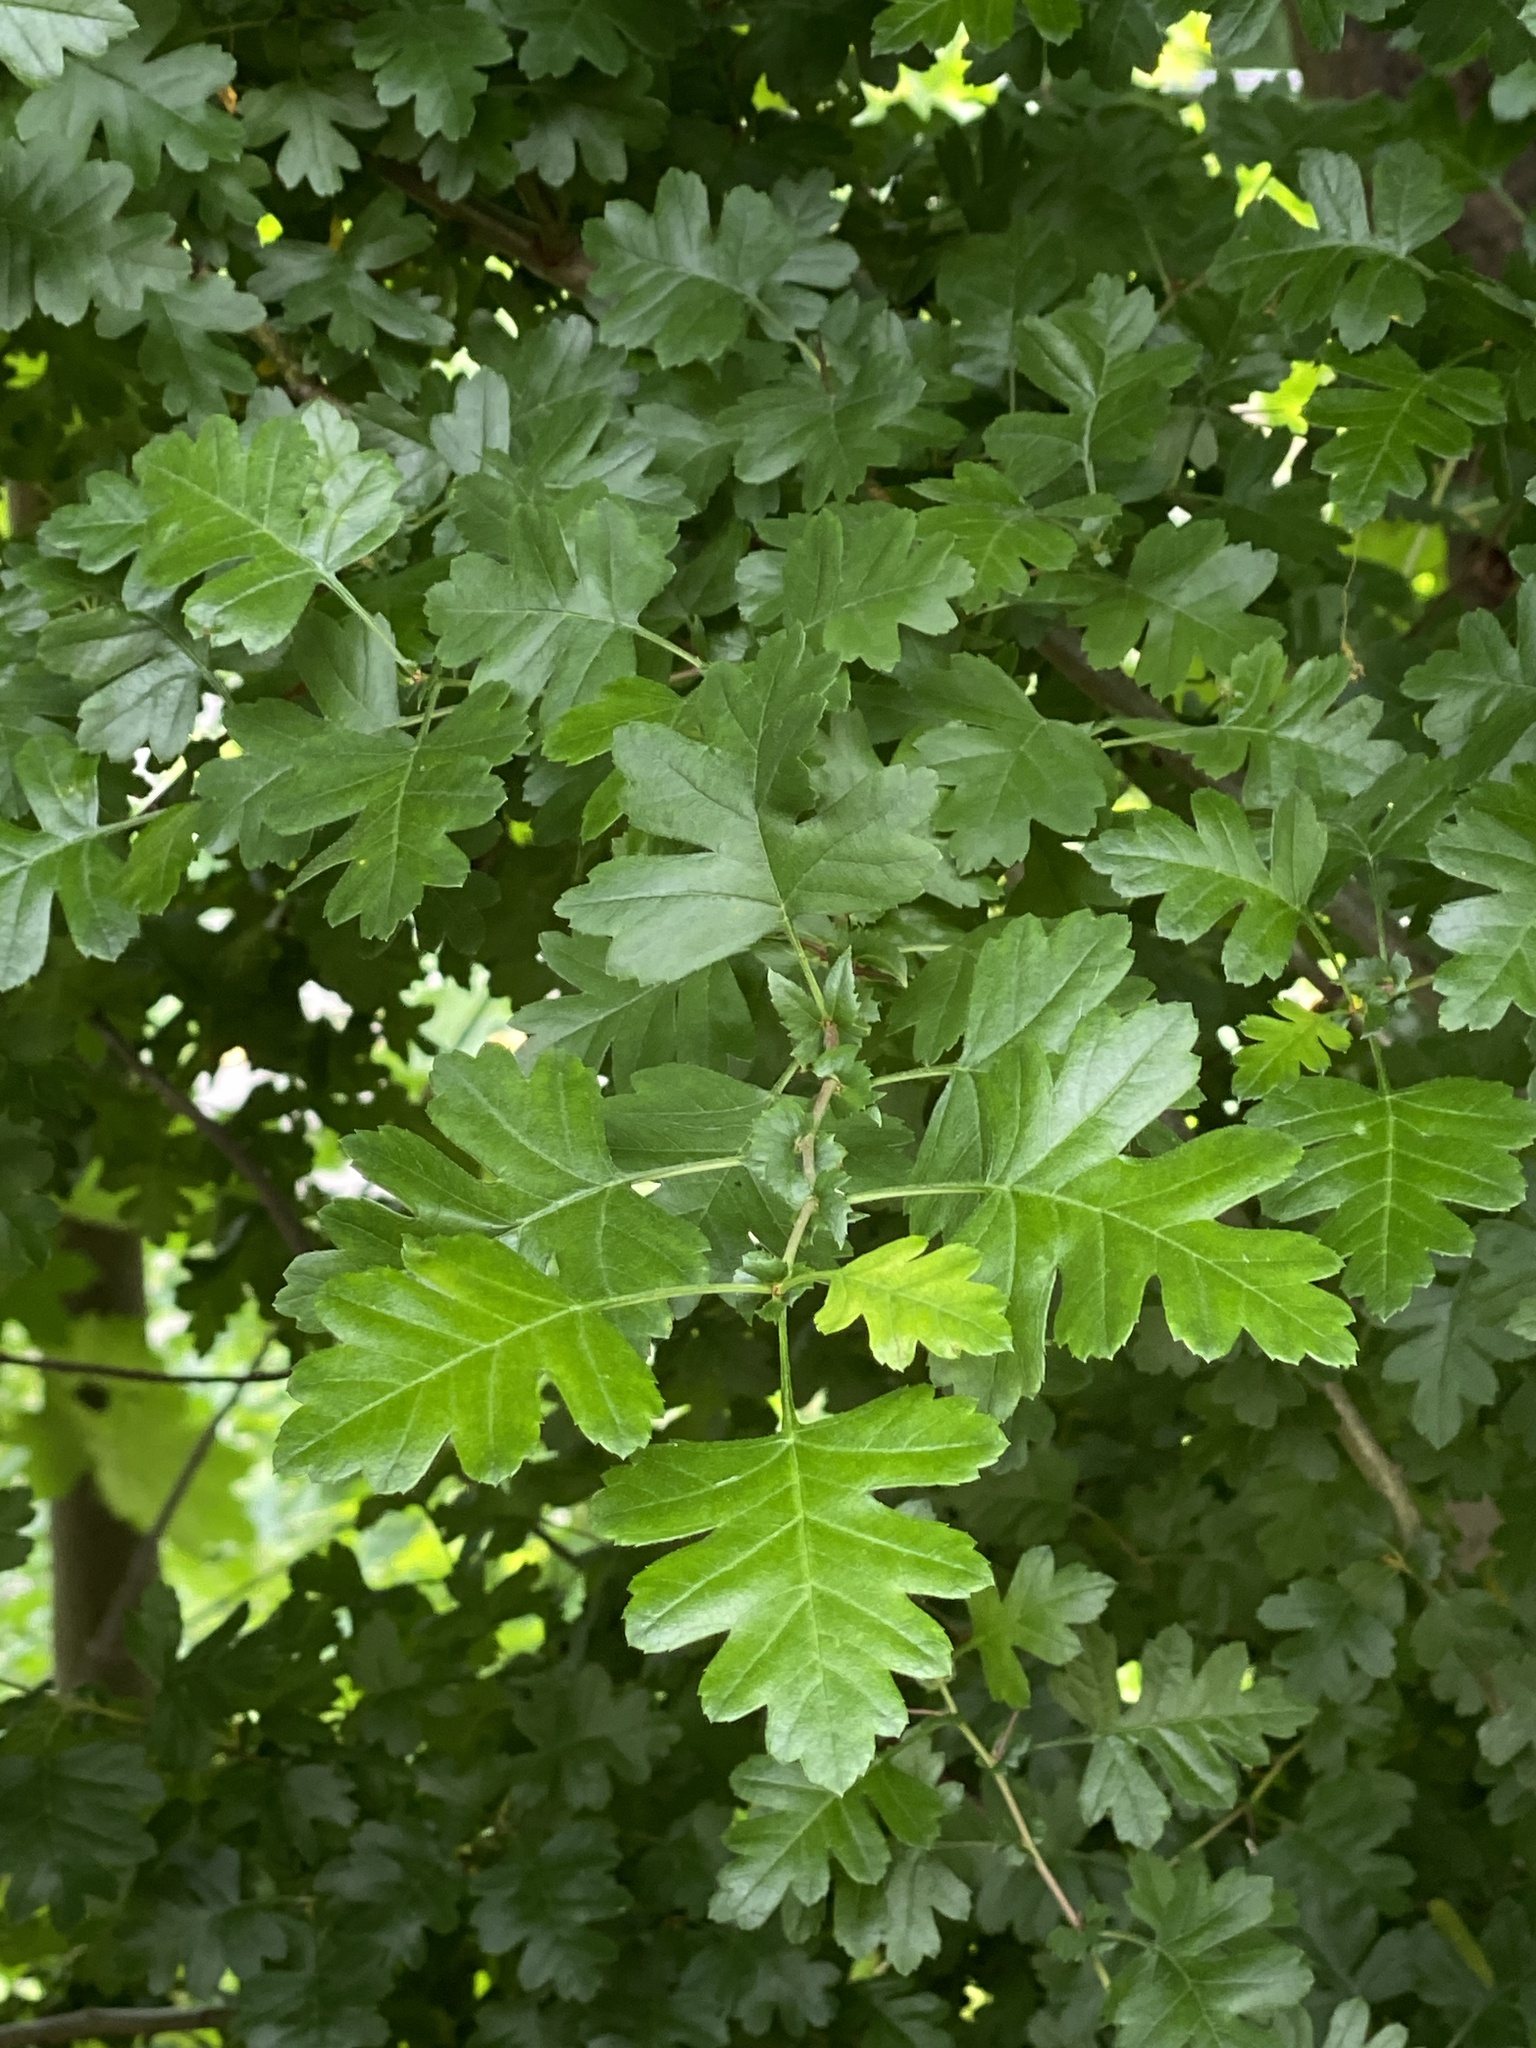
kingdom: Plantae
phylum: Tracheophyta
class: Magnoliopsida
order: Rosales
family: Rosaceae
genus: Crataegus
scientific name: Crataegus monogyna
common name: Hawthorn
